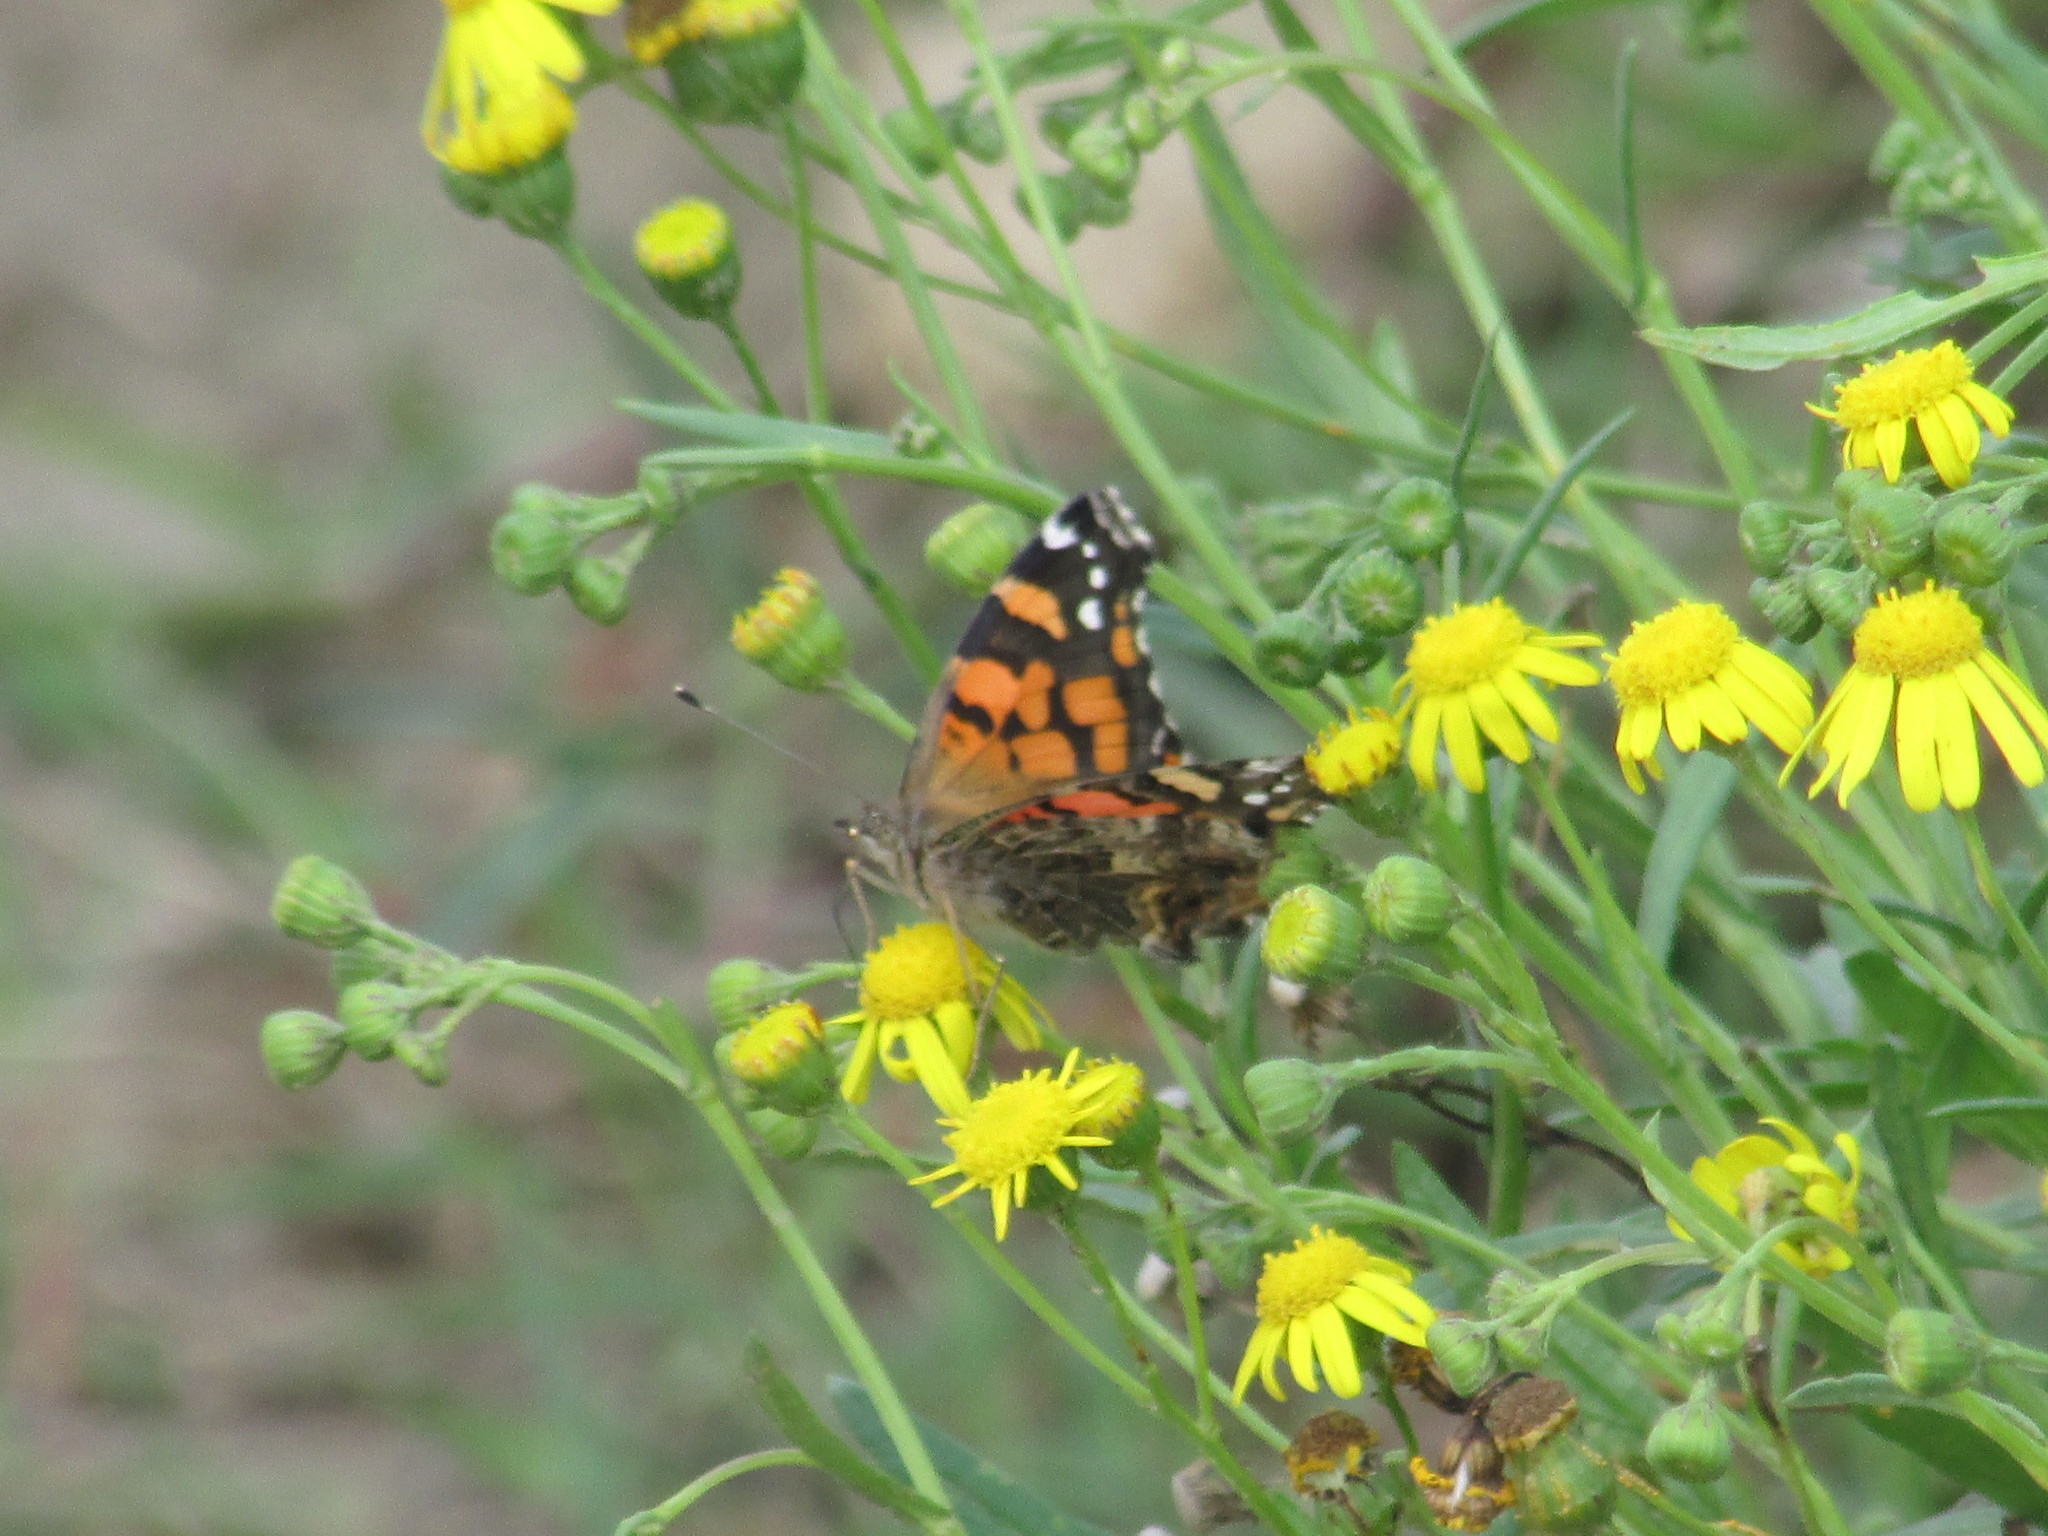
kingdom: Animalia
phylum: Arthropoda
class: Insecta
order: Lepidoptera
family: Nymphalidae
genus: Vanessa
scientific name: Vanessa carye
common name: Subtropical lady
